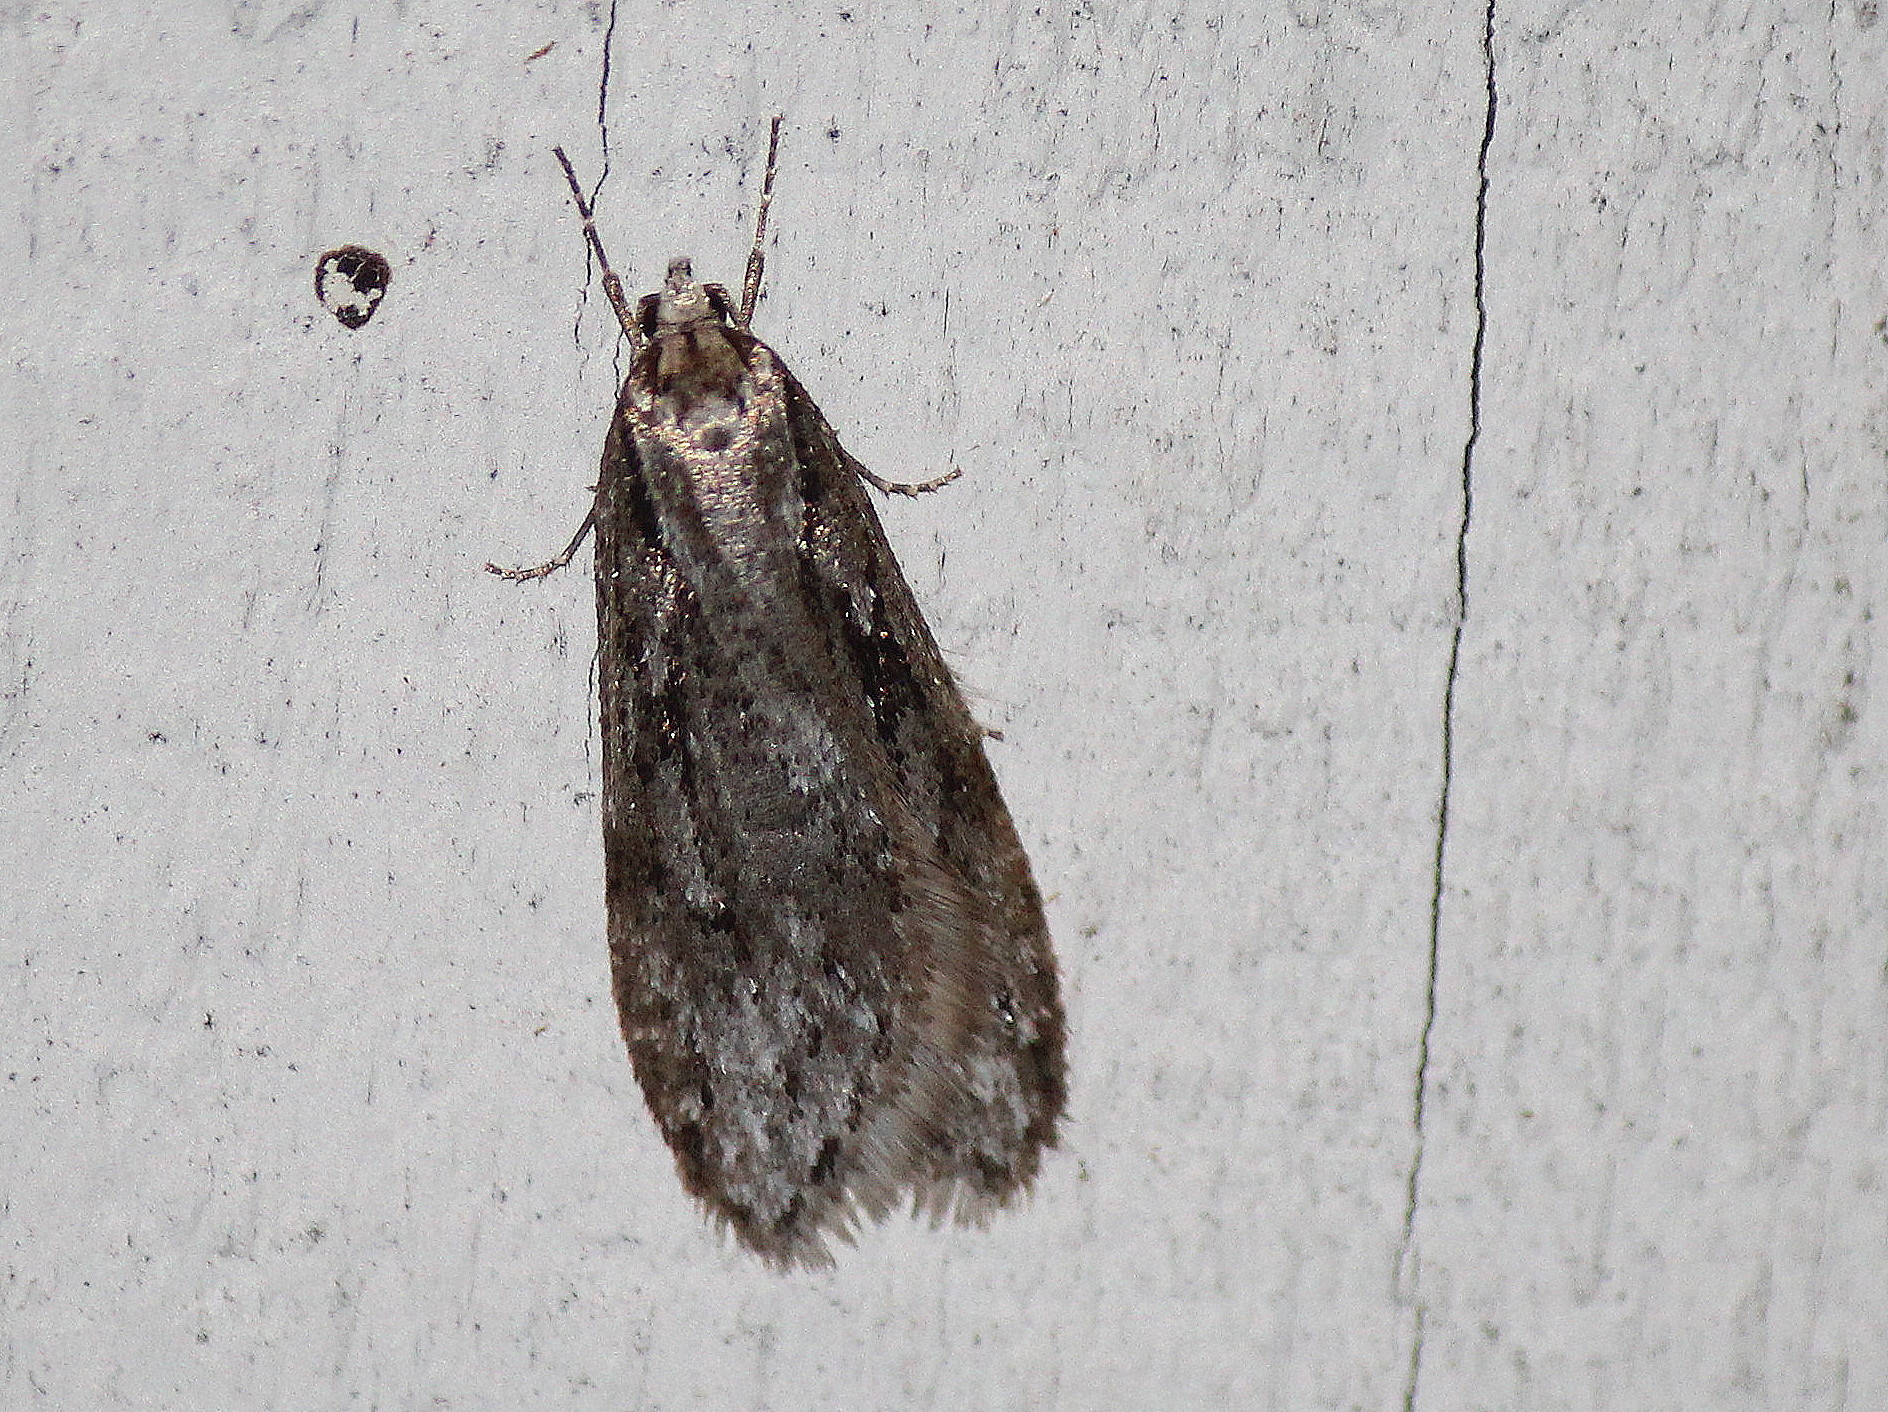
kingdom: Animalia
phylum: Arthropoda
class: Insecta
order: Lepidoptera
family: Depressariidae
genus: Semioscopis
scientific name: Semioscopis aurorella
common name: Aurora flatbody moth
